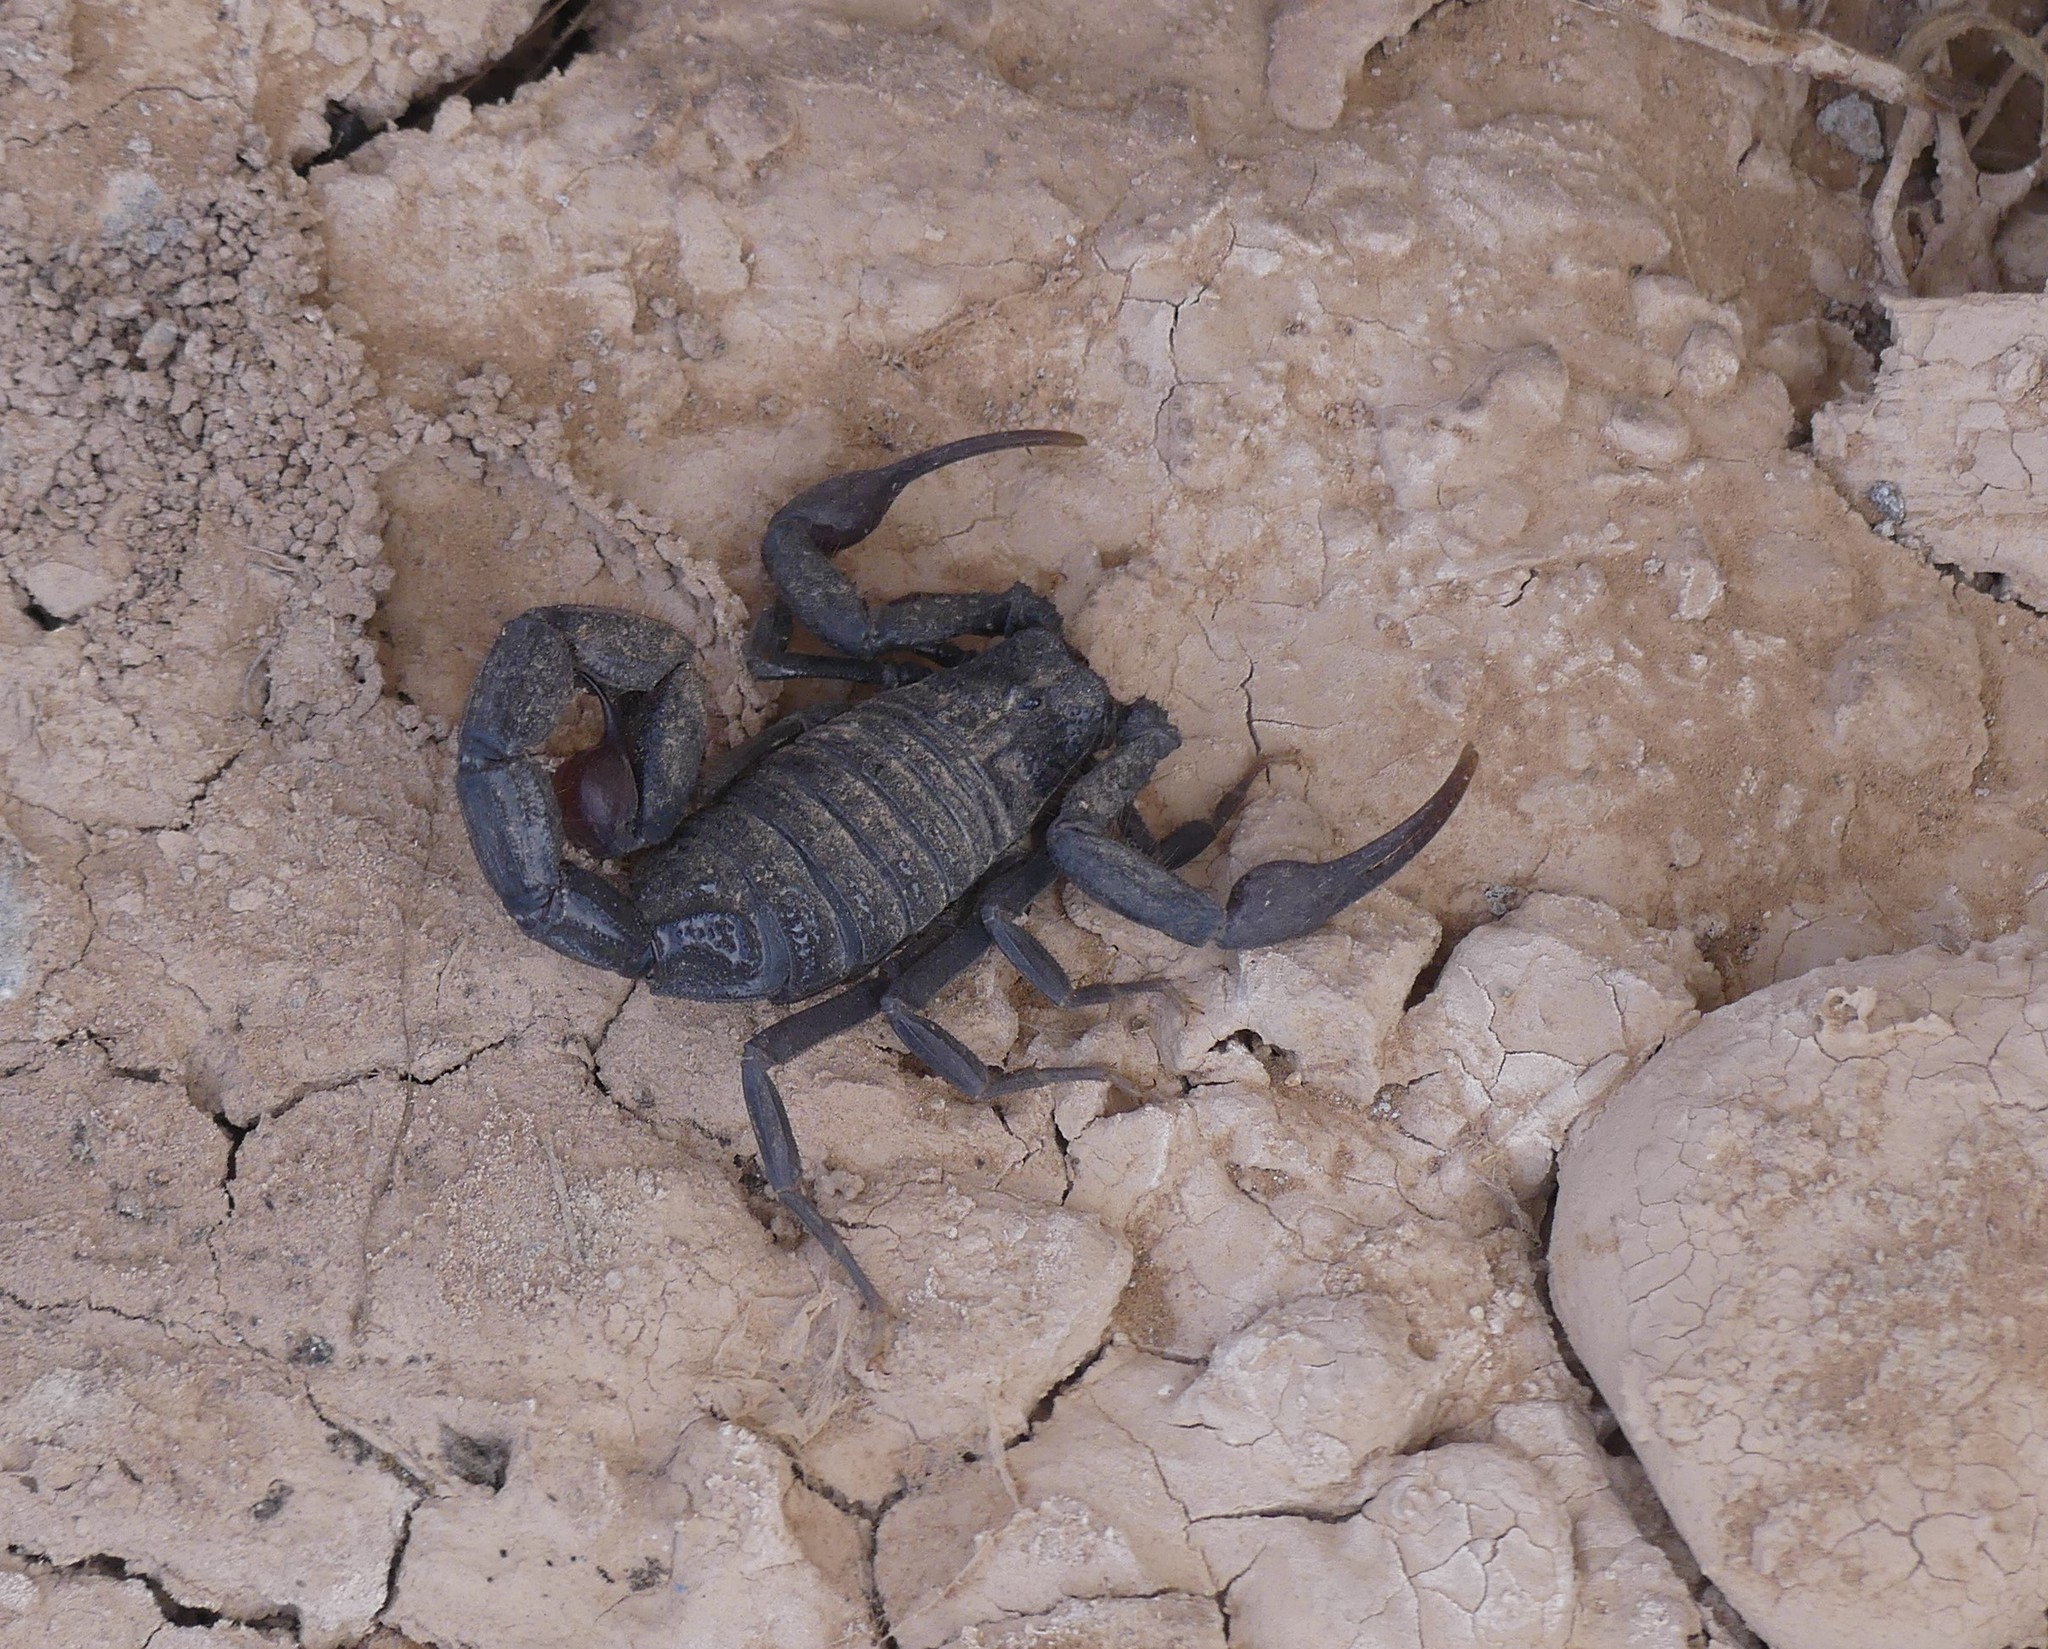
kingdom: Animalia
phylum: Arthropoda
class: Arachnida
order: Scorpiones
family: Buthidae
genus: Hottentotta
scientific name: Hottentotta gentili
